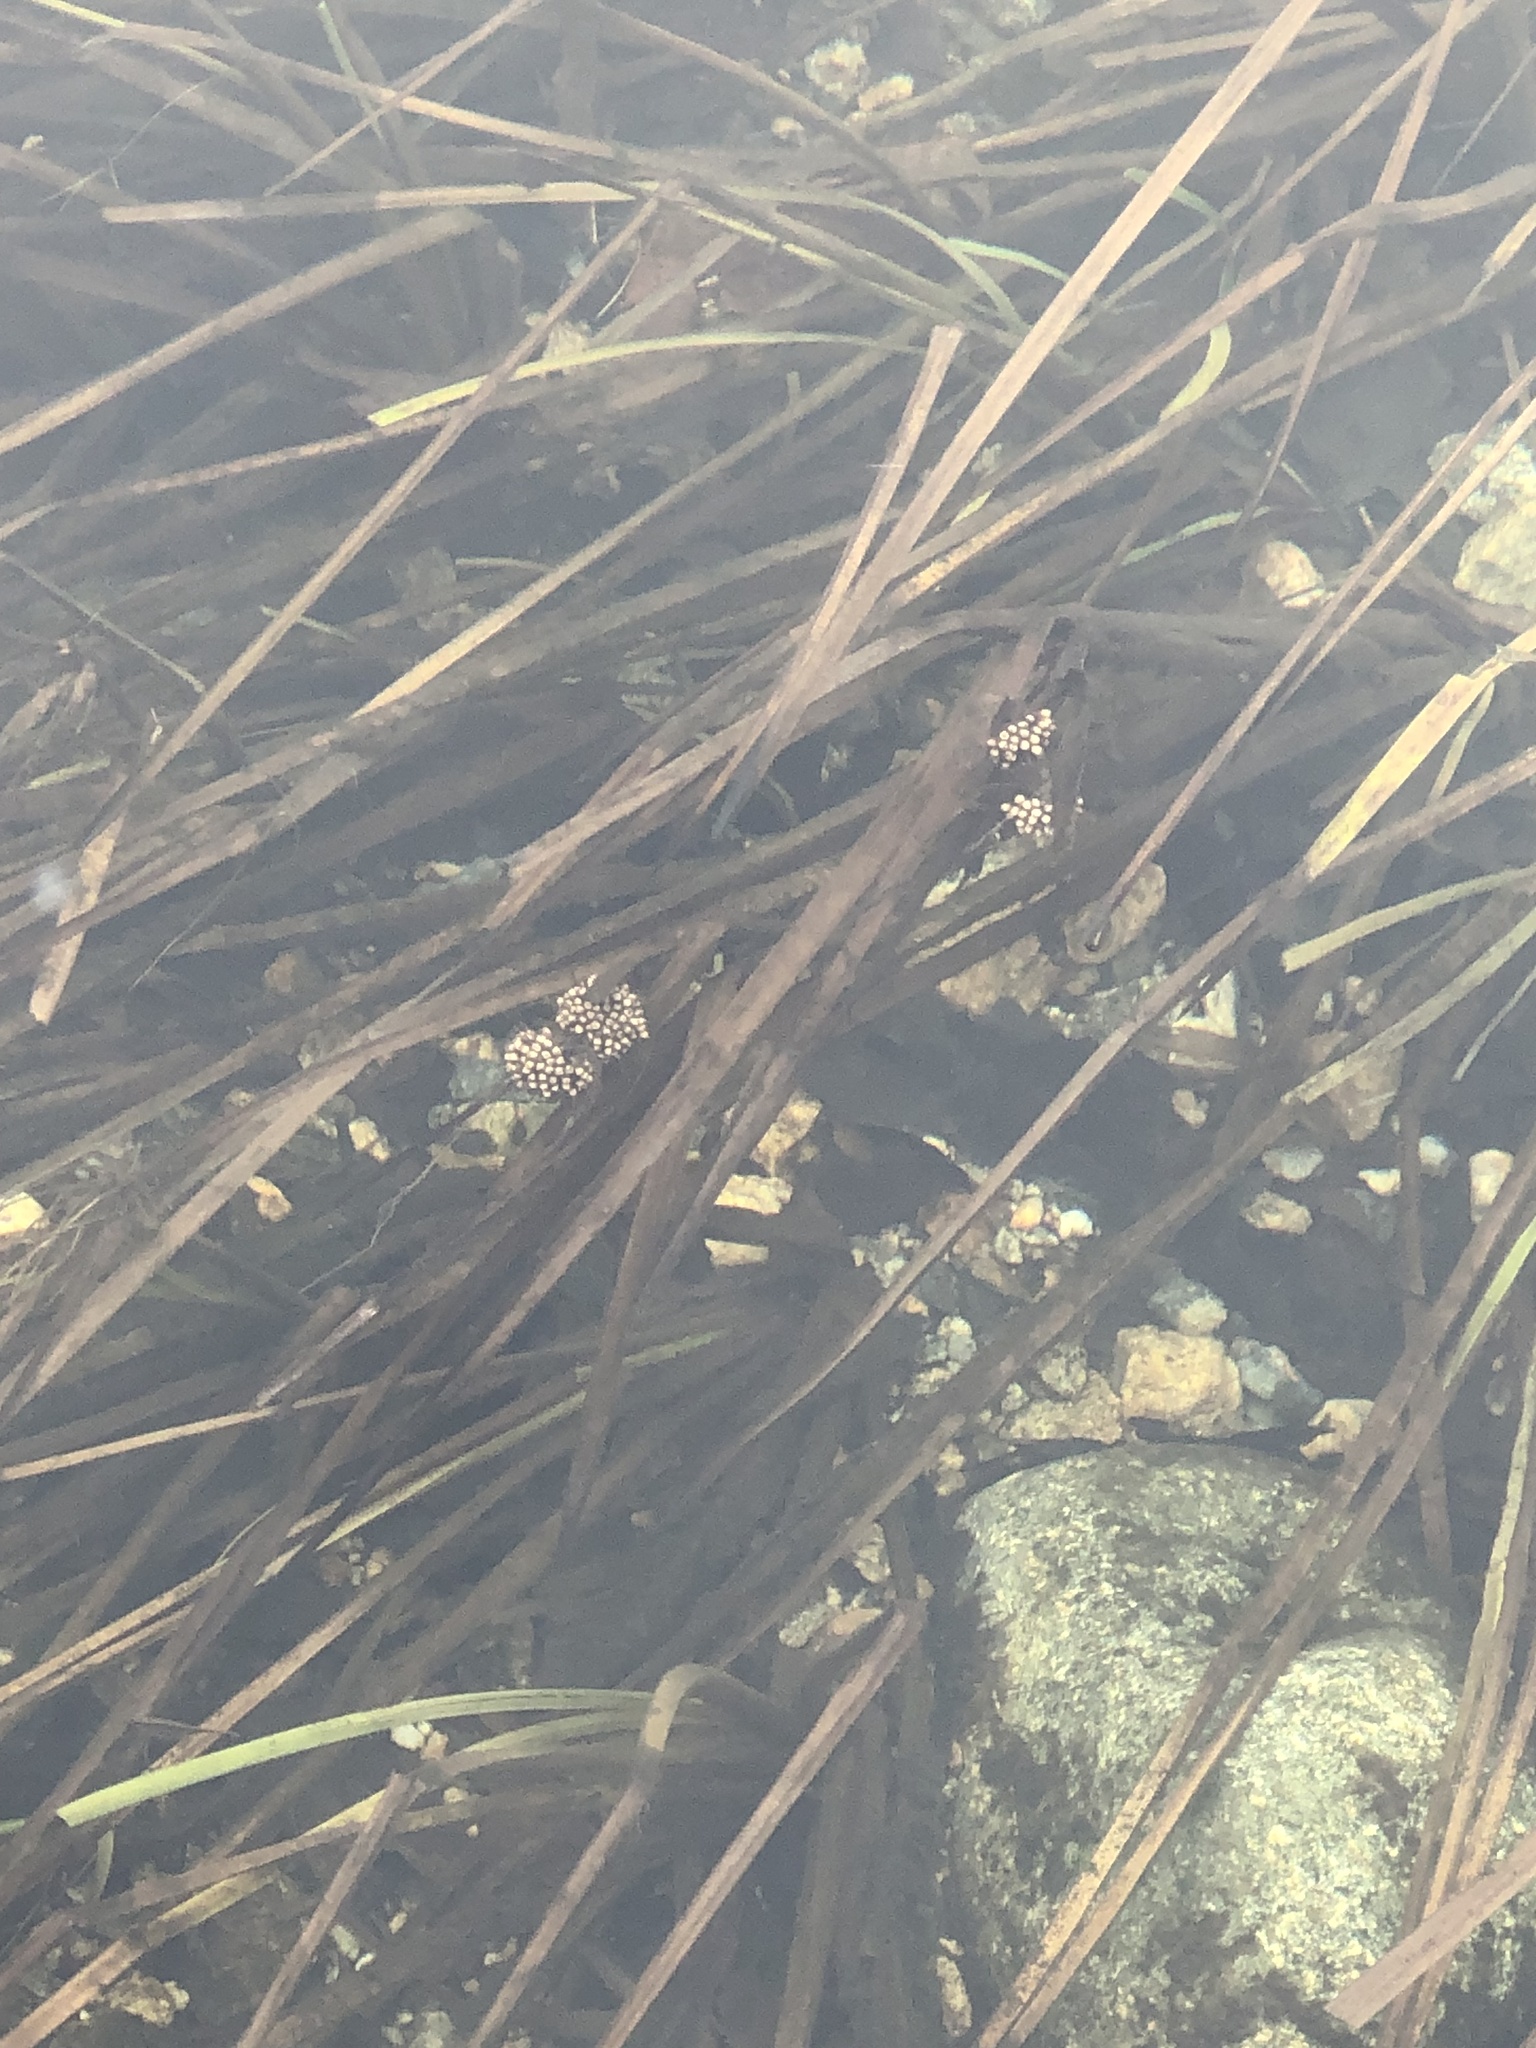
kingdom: Plantae
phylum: Tracheophyta
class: Liliopsida
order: Poales
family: Typhaceae
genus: Sparganium
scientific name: Sparganium americanum
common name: American burreed
